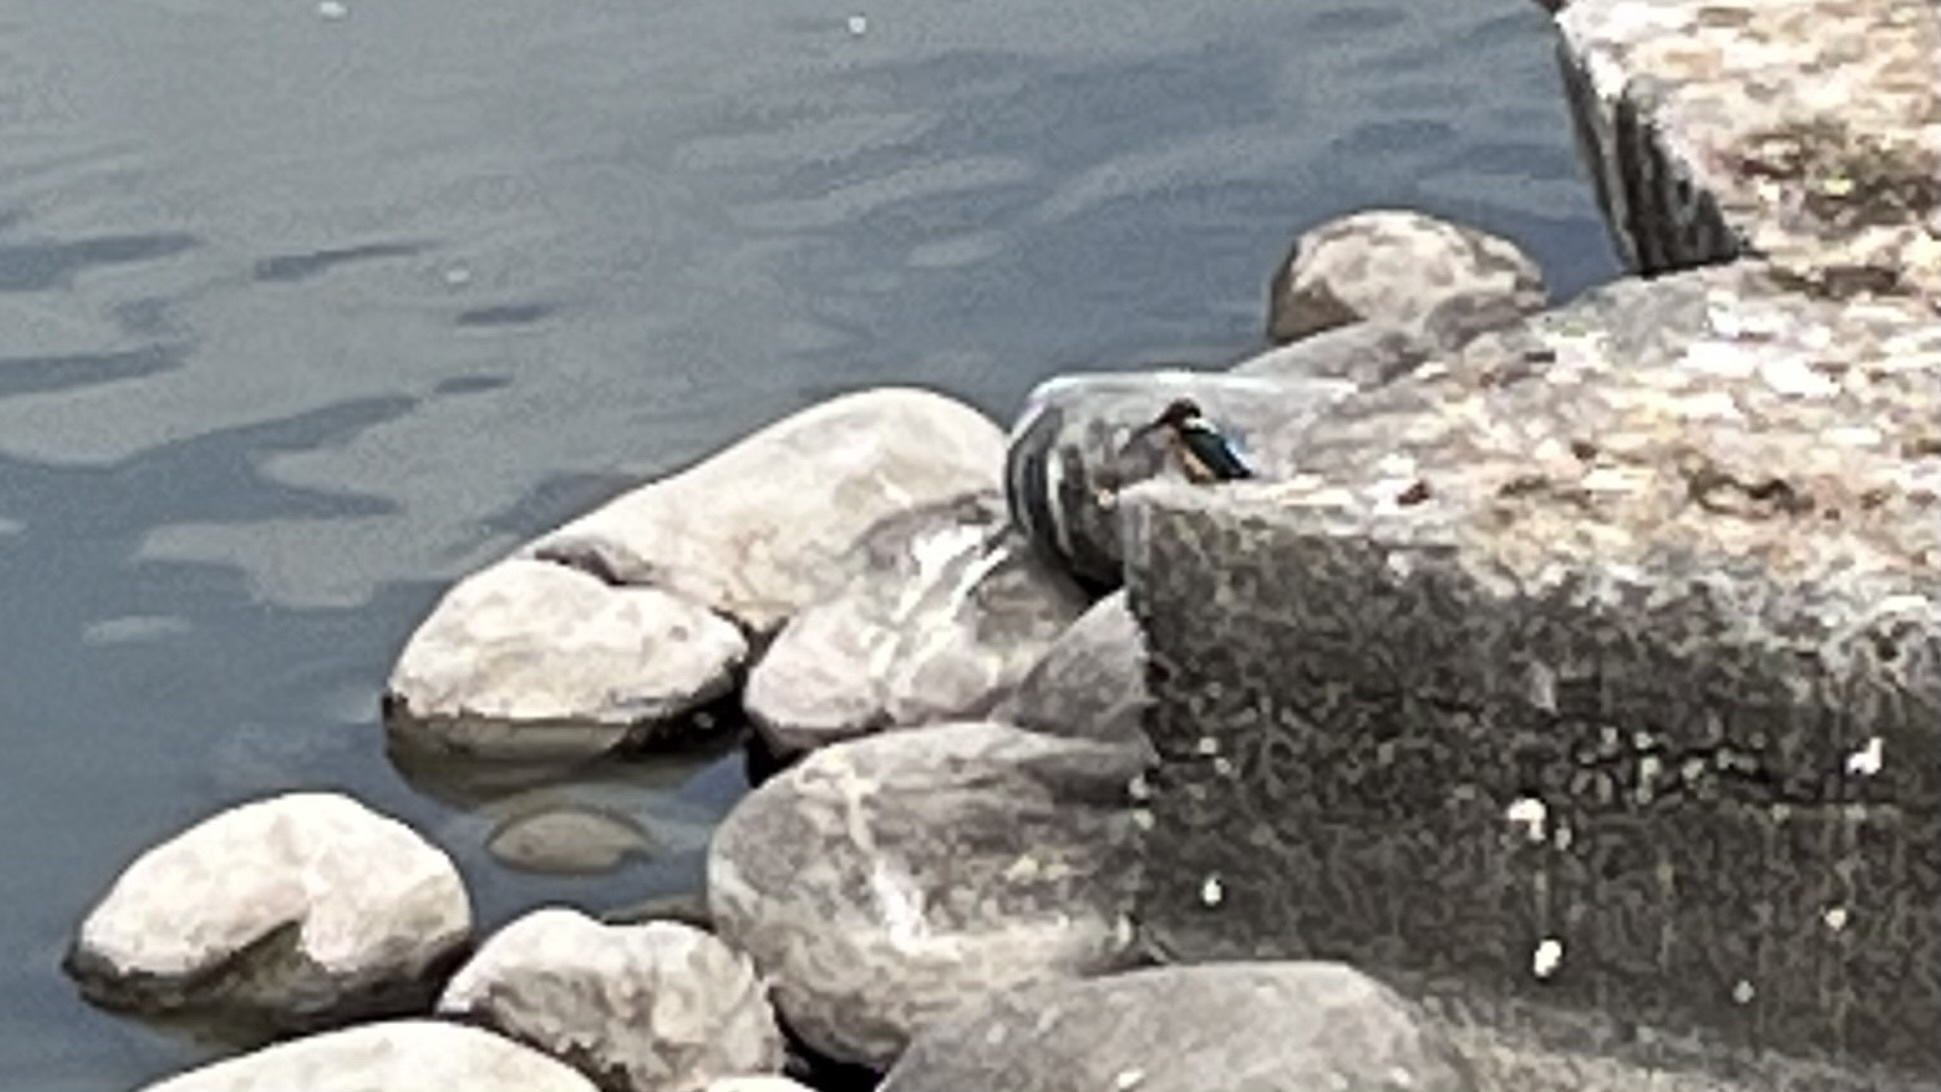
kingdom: Animalia
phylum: Chordata
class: Aves
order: Coraciiformes
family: Alcedinidae
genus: Alcedo
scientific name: Alcedo atthis
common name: Common kingfisher
